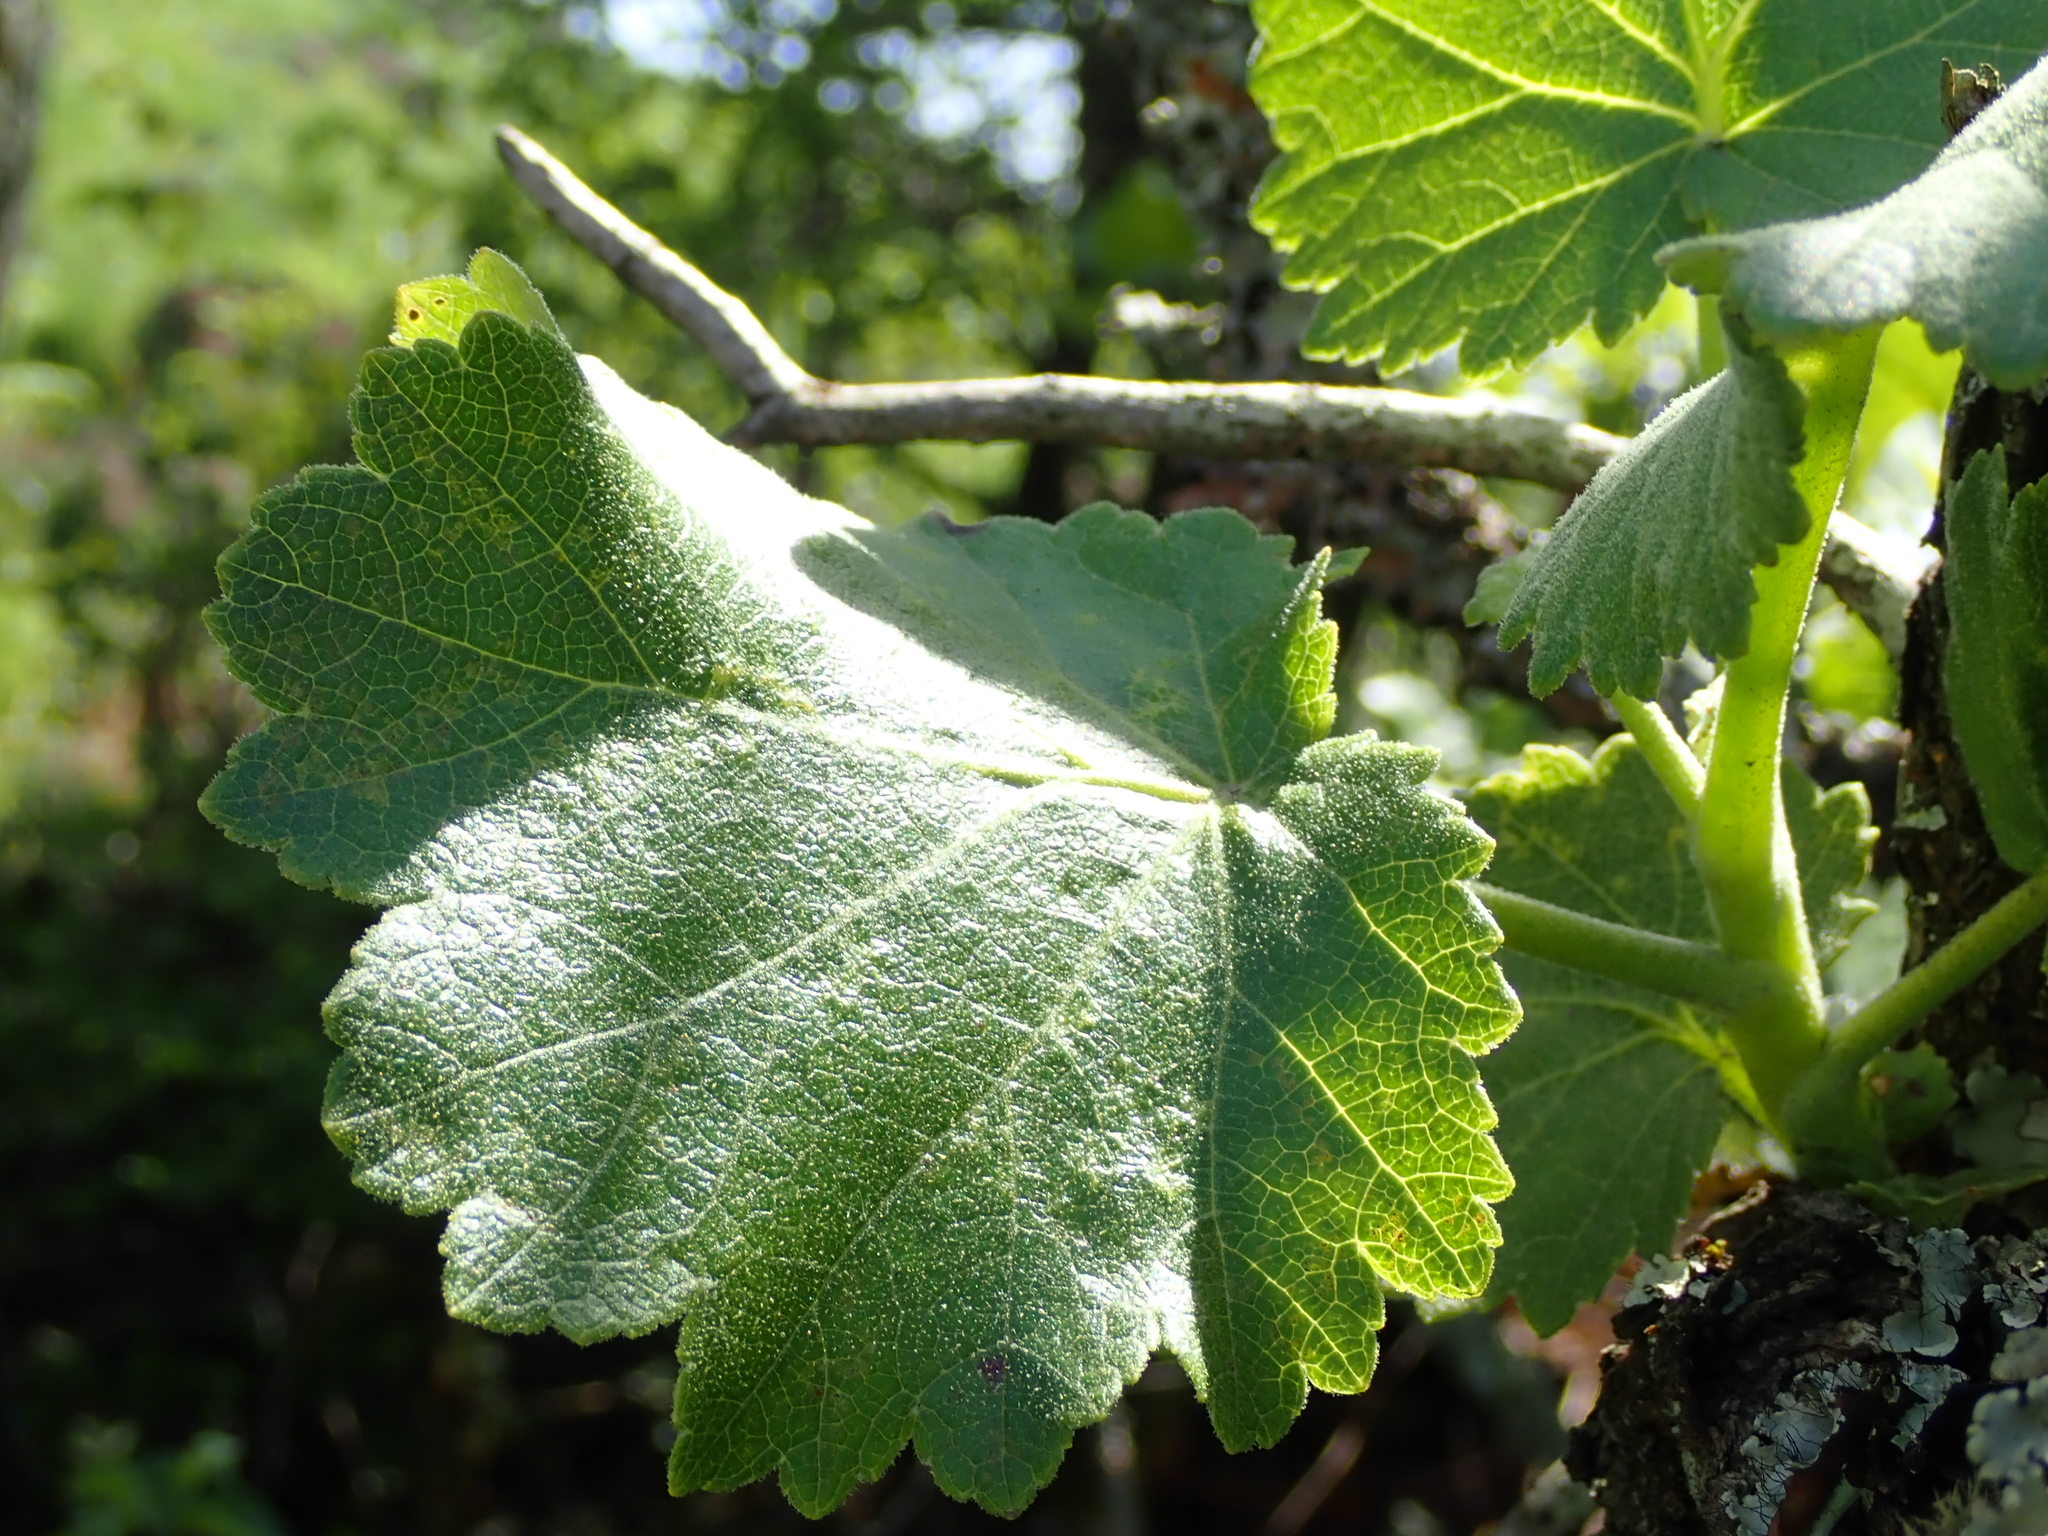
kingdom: Plantae
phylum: Tracheophyta
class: Magnoliopsida
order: Geraniales
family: Francoaceae
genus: Greyia
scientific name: Greyia radlkoferi
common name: Natal bottlebrush
